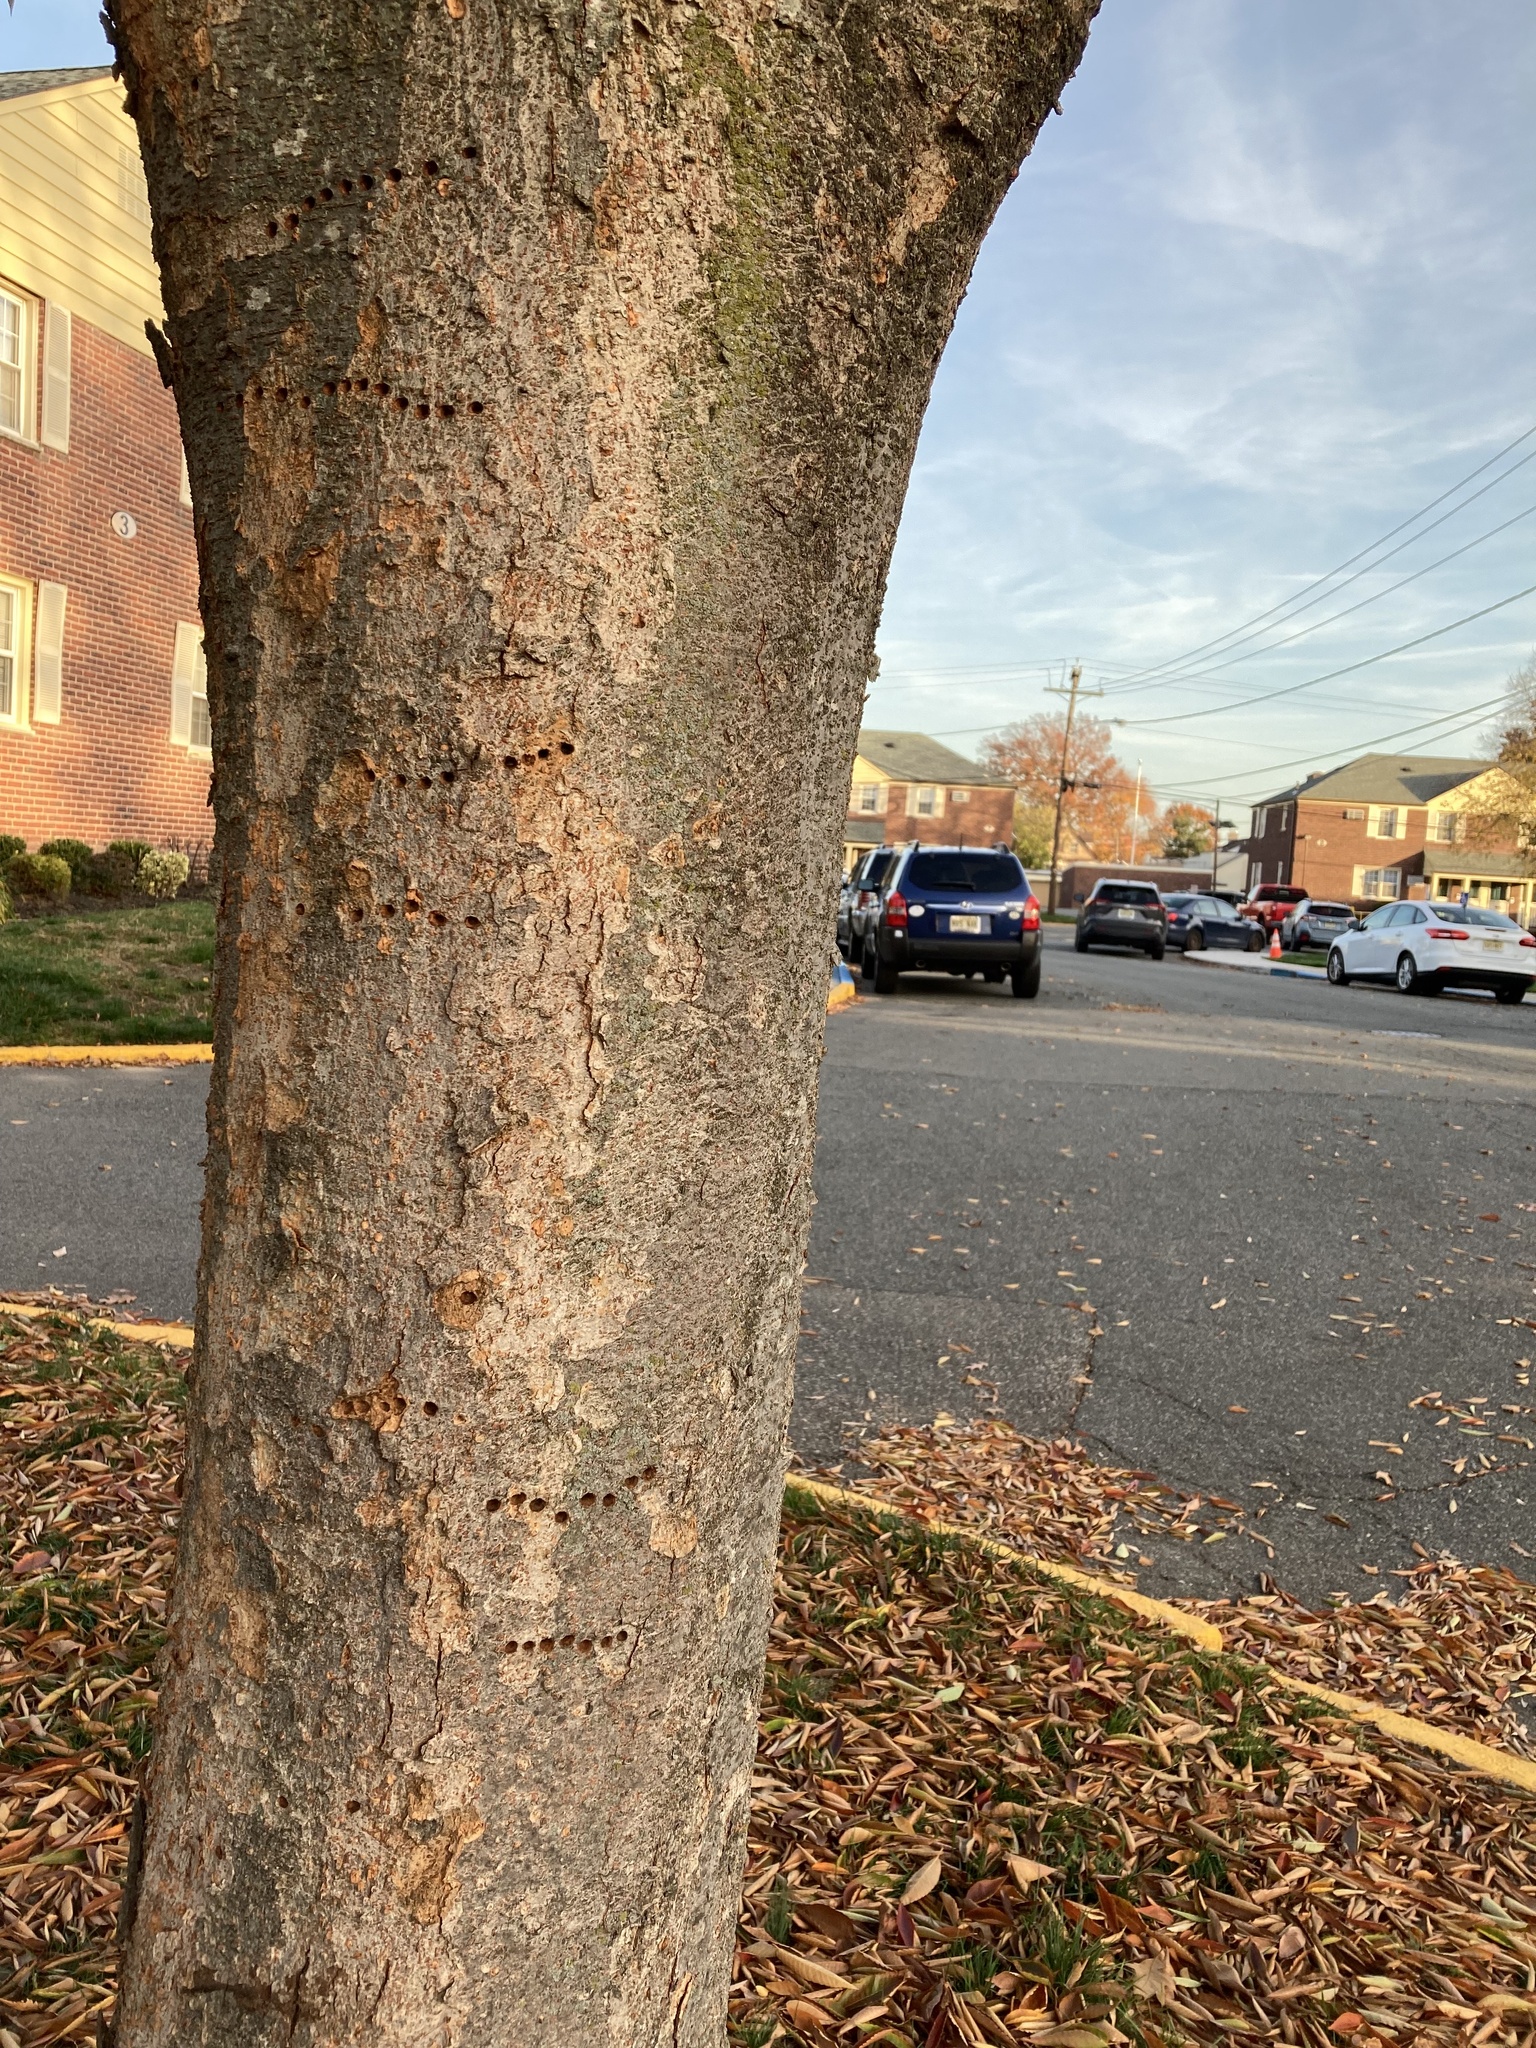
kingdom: Animalia
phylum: Chordata
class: Aves
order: Piciformes
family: Picidae
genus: Sphyrapicus
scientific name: Sphyrapicus varius
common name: Yellow-bellied sapsucker
